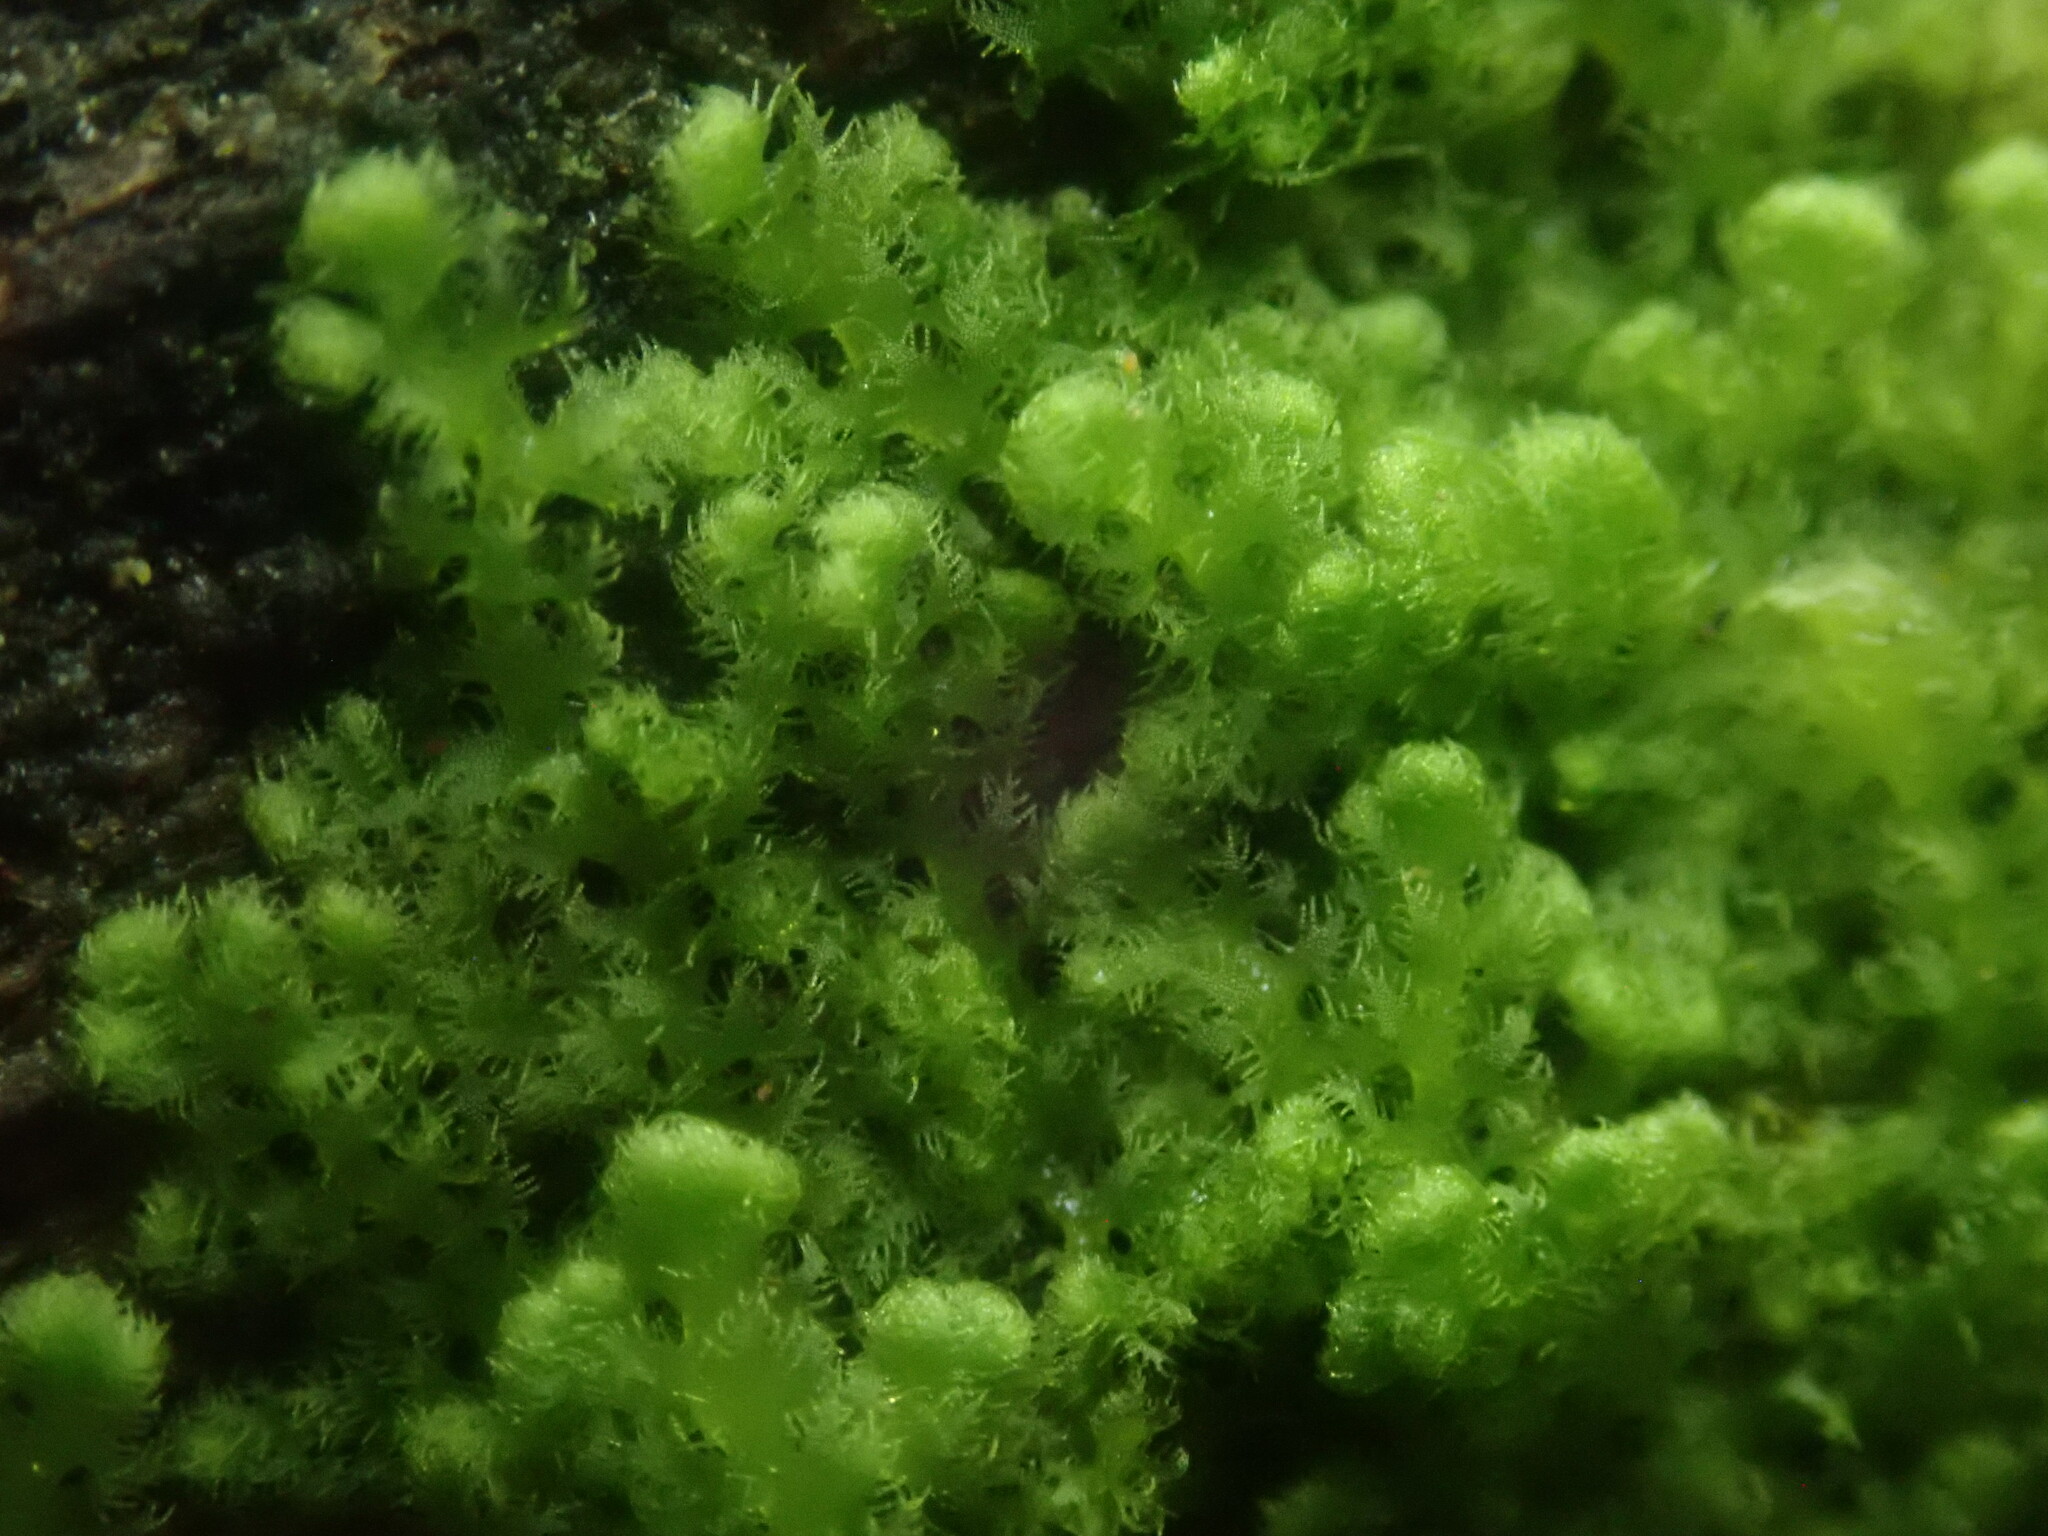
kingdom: Plantae
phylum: Marchantiophyta
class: Jungermanniopsida
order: Ptilidiales
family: Ptilidiaceae
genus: Ptilidium
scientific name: Ptilidium pulcherrimum
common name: Tree fringewort
